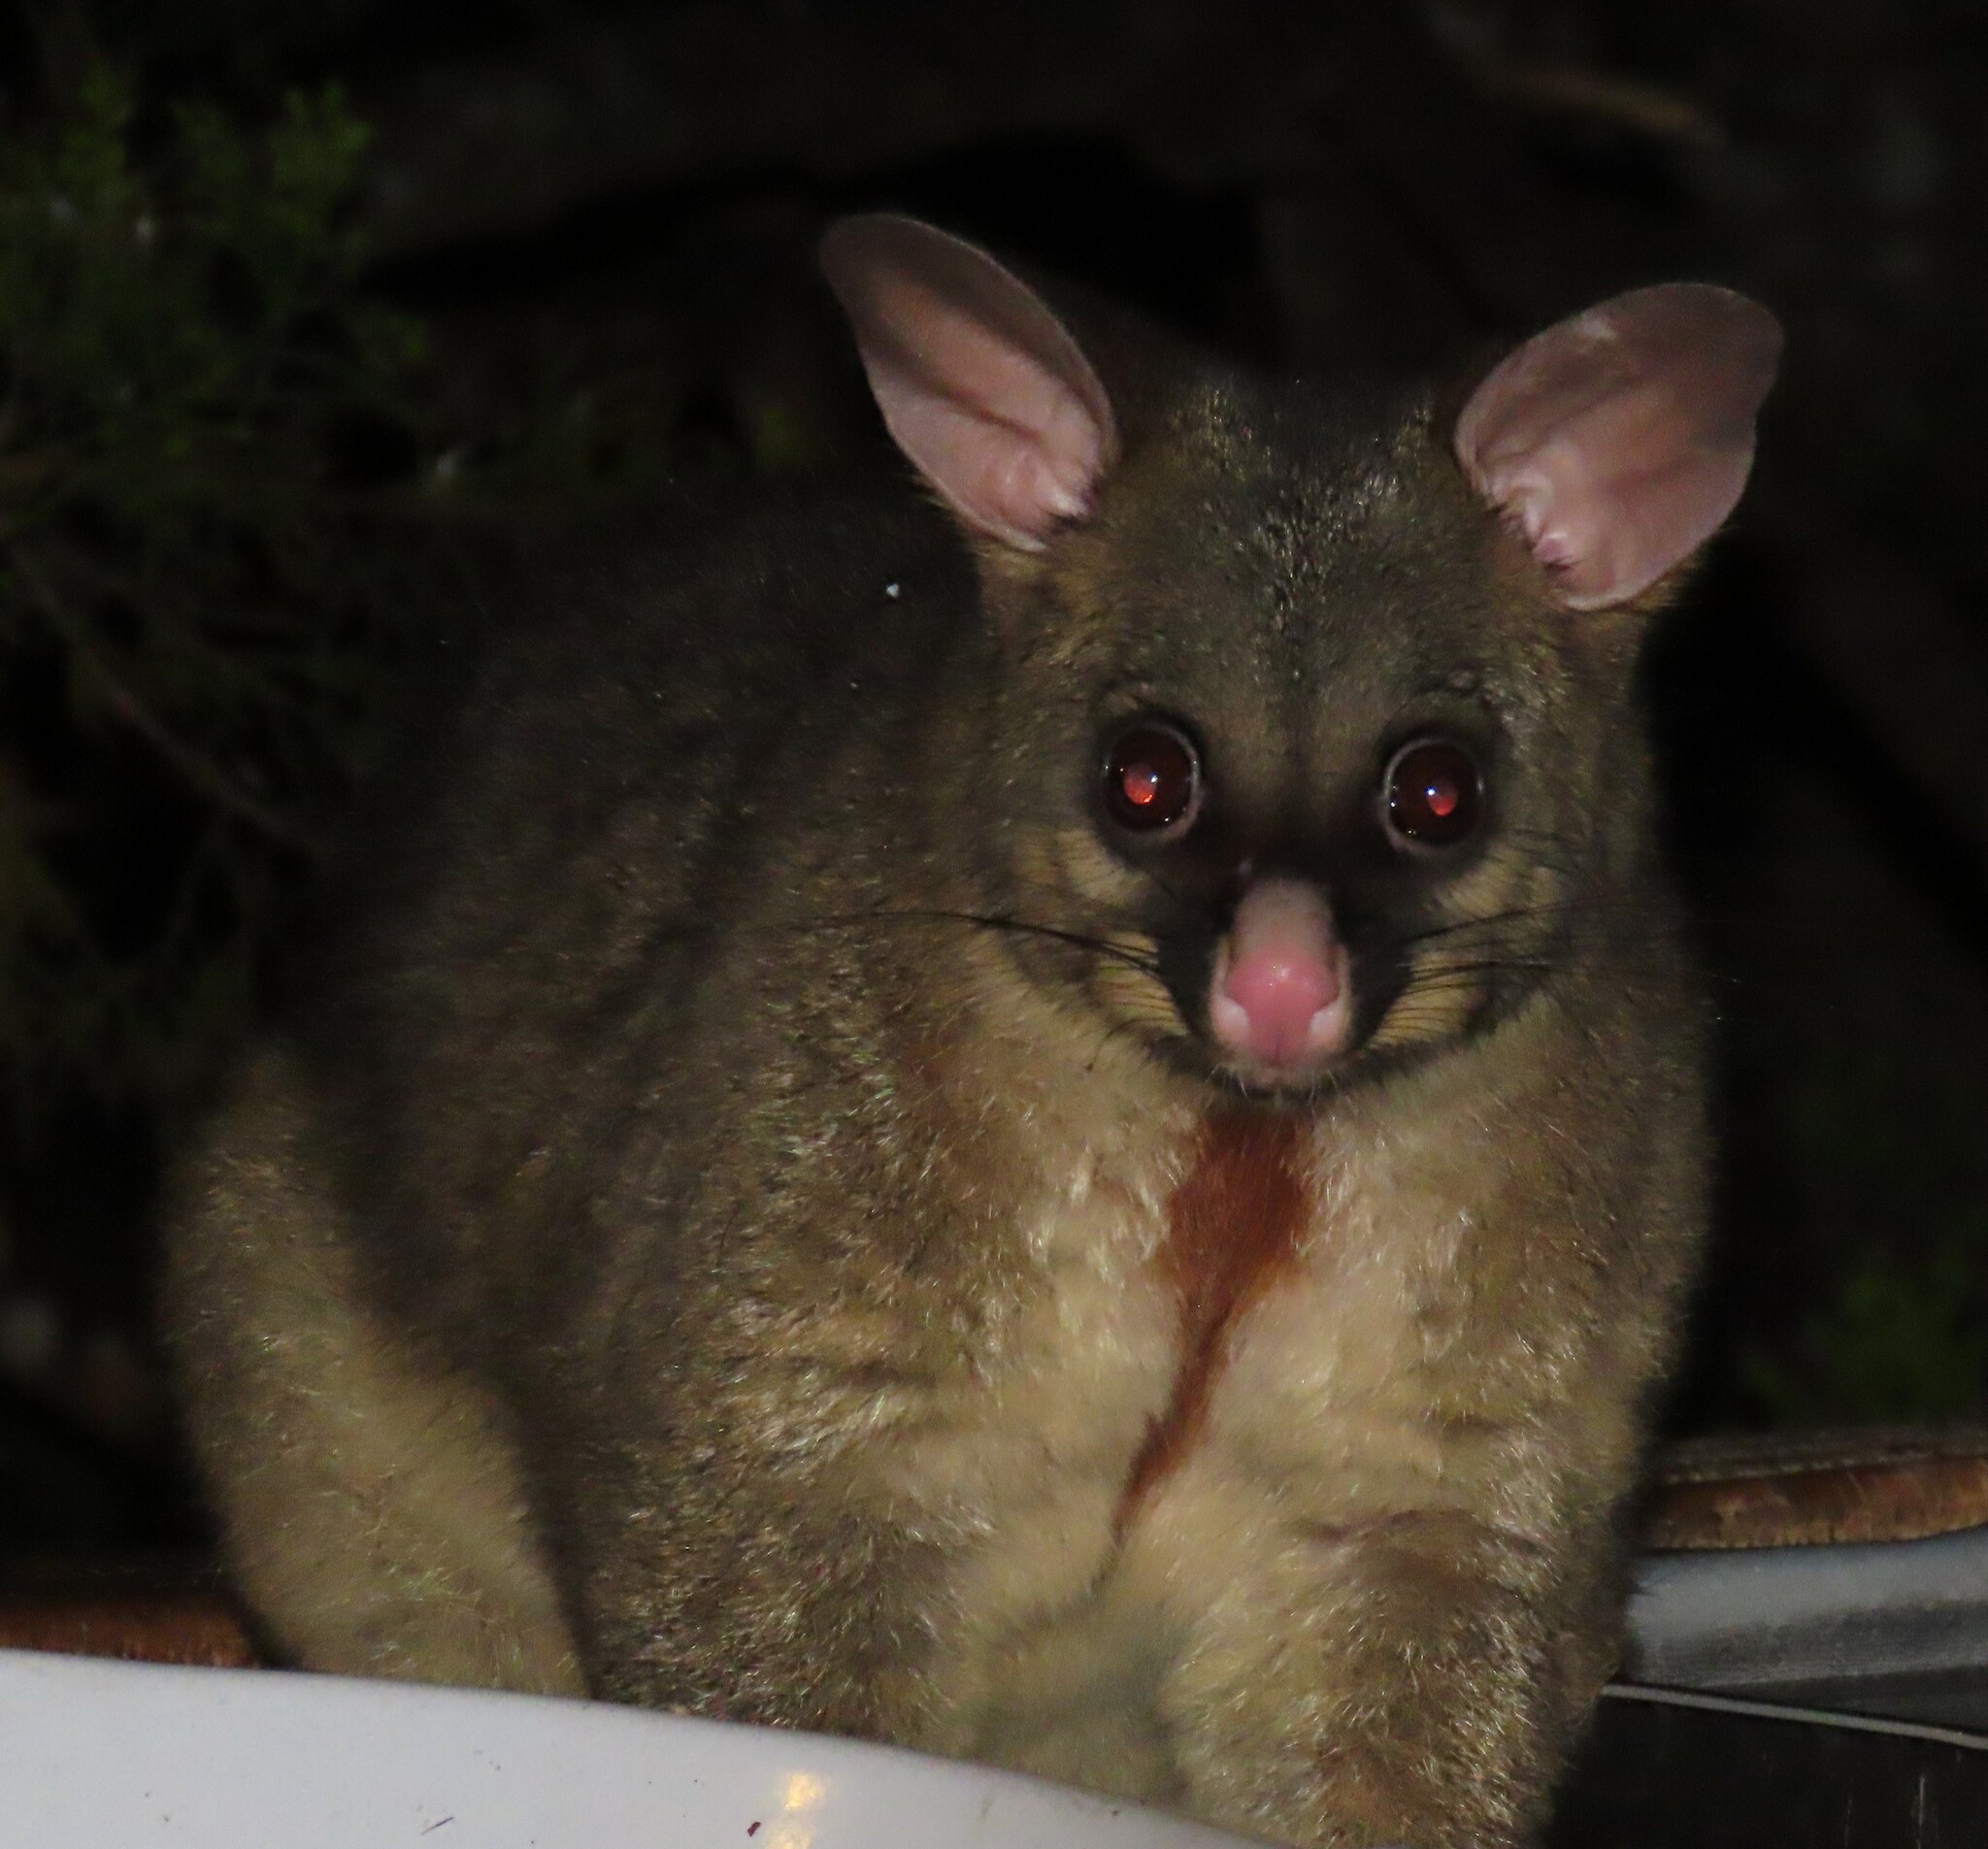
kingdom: Animalia
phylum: Chordata
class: Mammalia
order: Diprotodontia
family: Phalangeridae
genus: Trichosurus
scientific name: Trichosurus vulpecula
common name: Common brushtail
